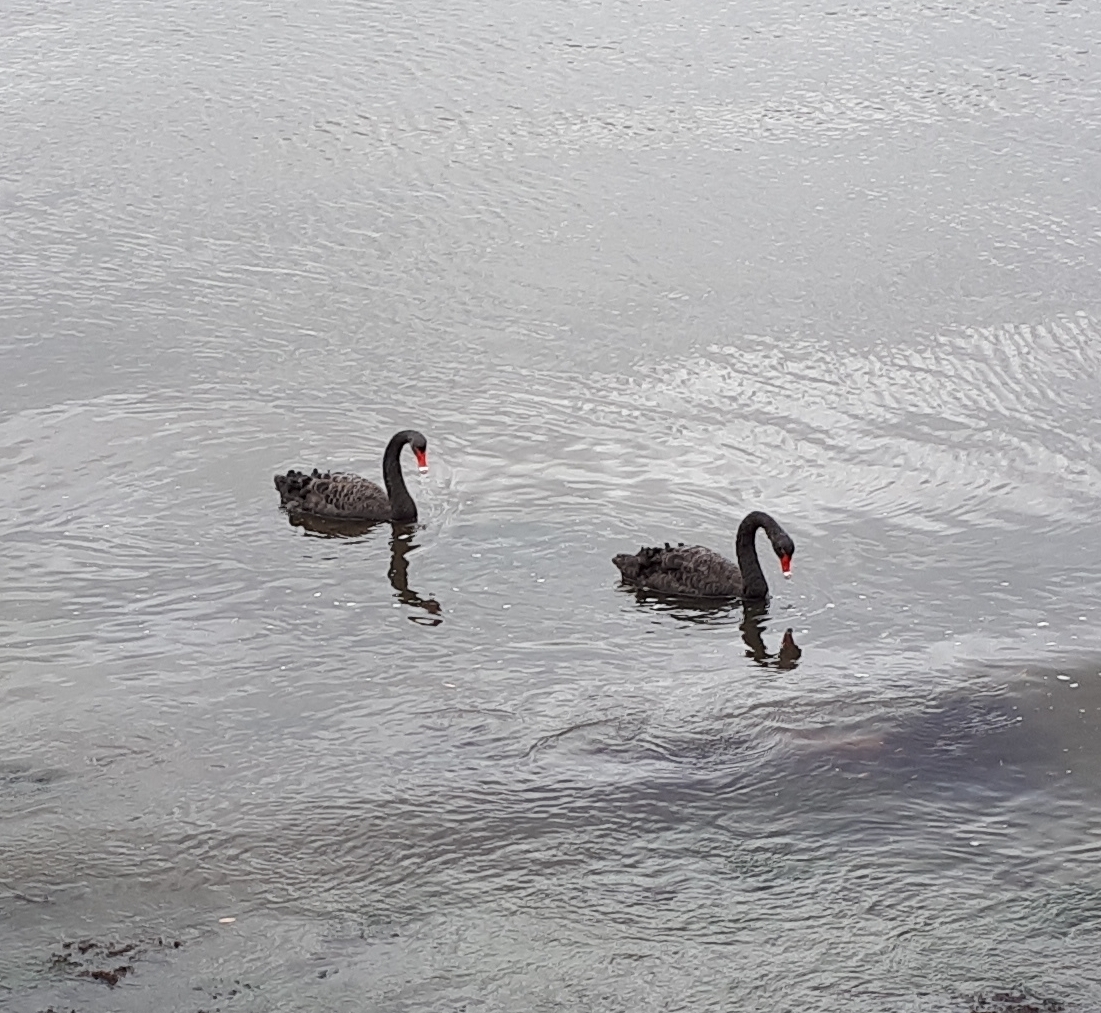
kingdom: Animalia
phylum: Chordata
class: Aves
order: Anseriformes
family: Anatidae
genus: Cygnus
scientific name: Cygnus atratus
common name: Black swan
